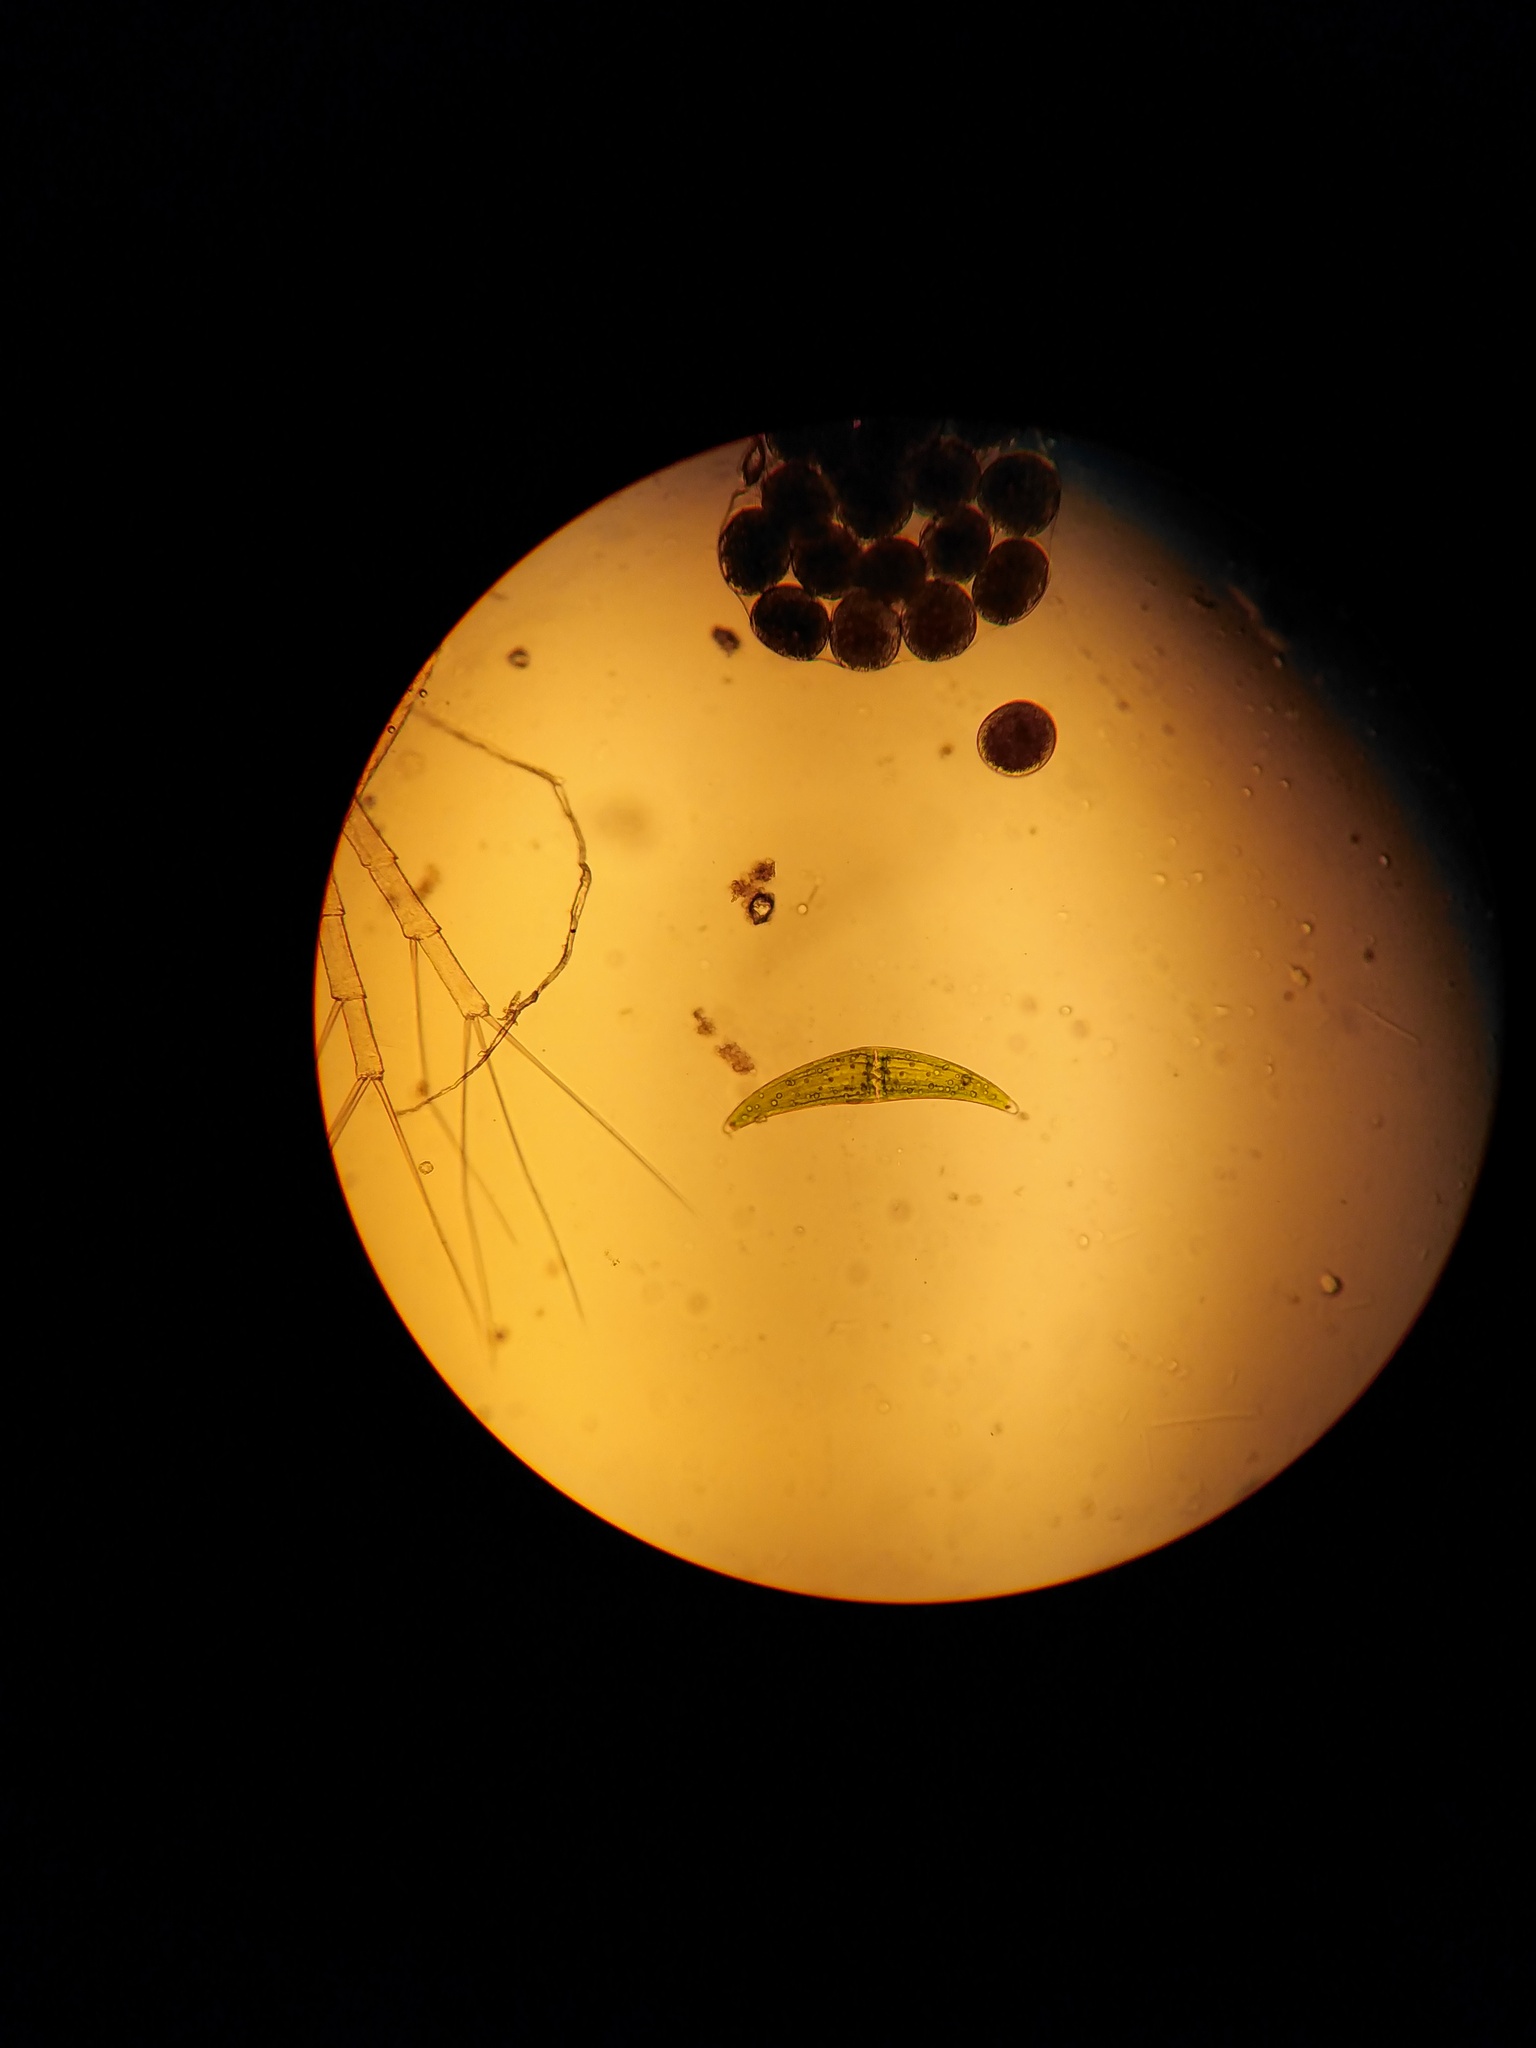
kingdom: Plantae
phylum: Charophyta
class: Zygnematophyceae
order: Zygnematales
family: Closteriaceae
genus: Closterium
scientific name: Closterium moniliferum
